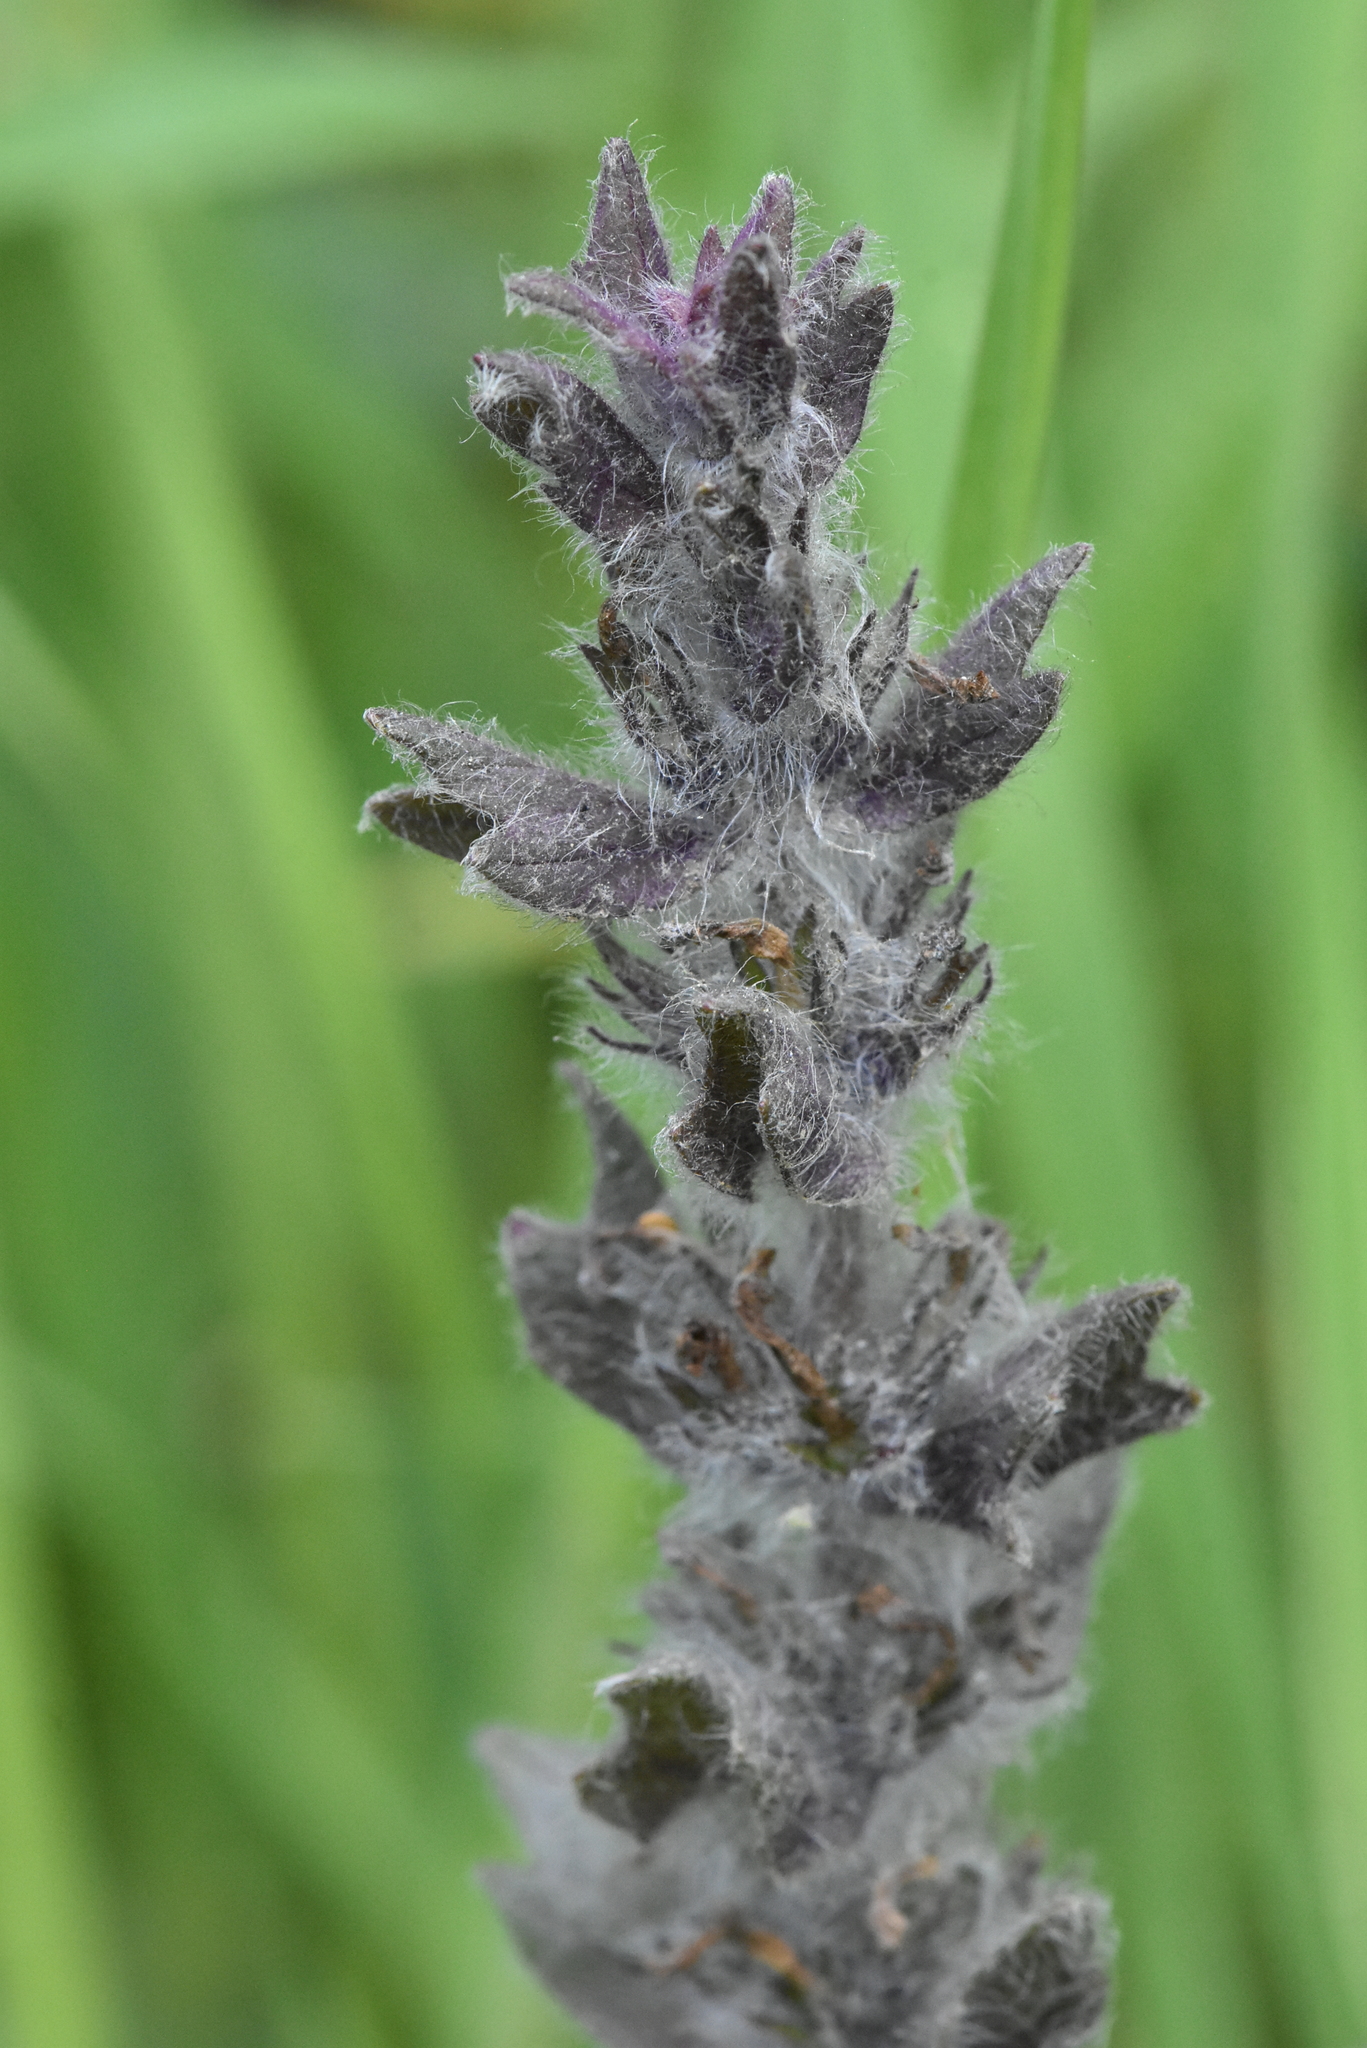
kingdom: Plantae
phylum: Tracheophyta
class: Magnoliopsida
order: Lamiales
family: Lamiaceae
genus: Ajuga
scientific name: Ajuga orientalis
